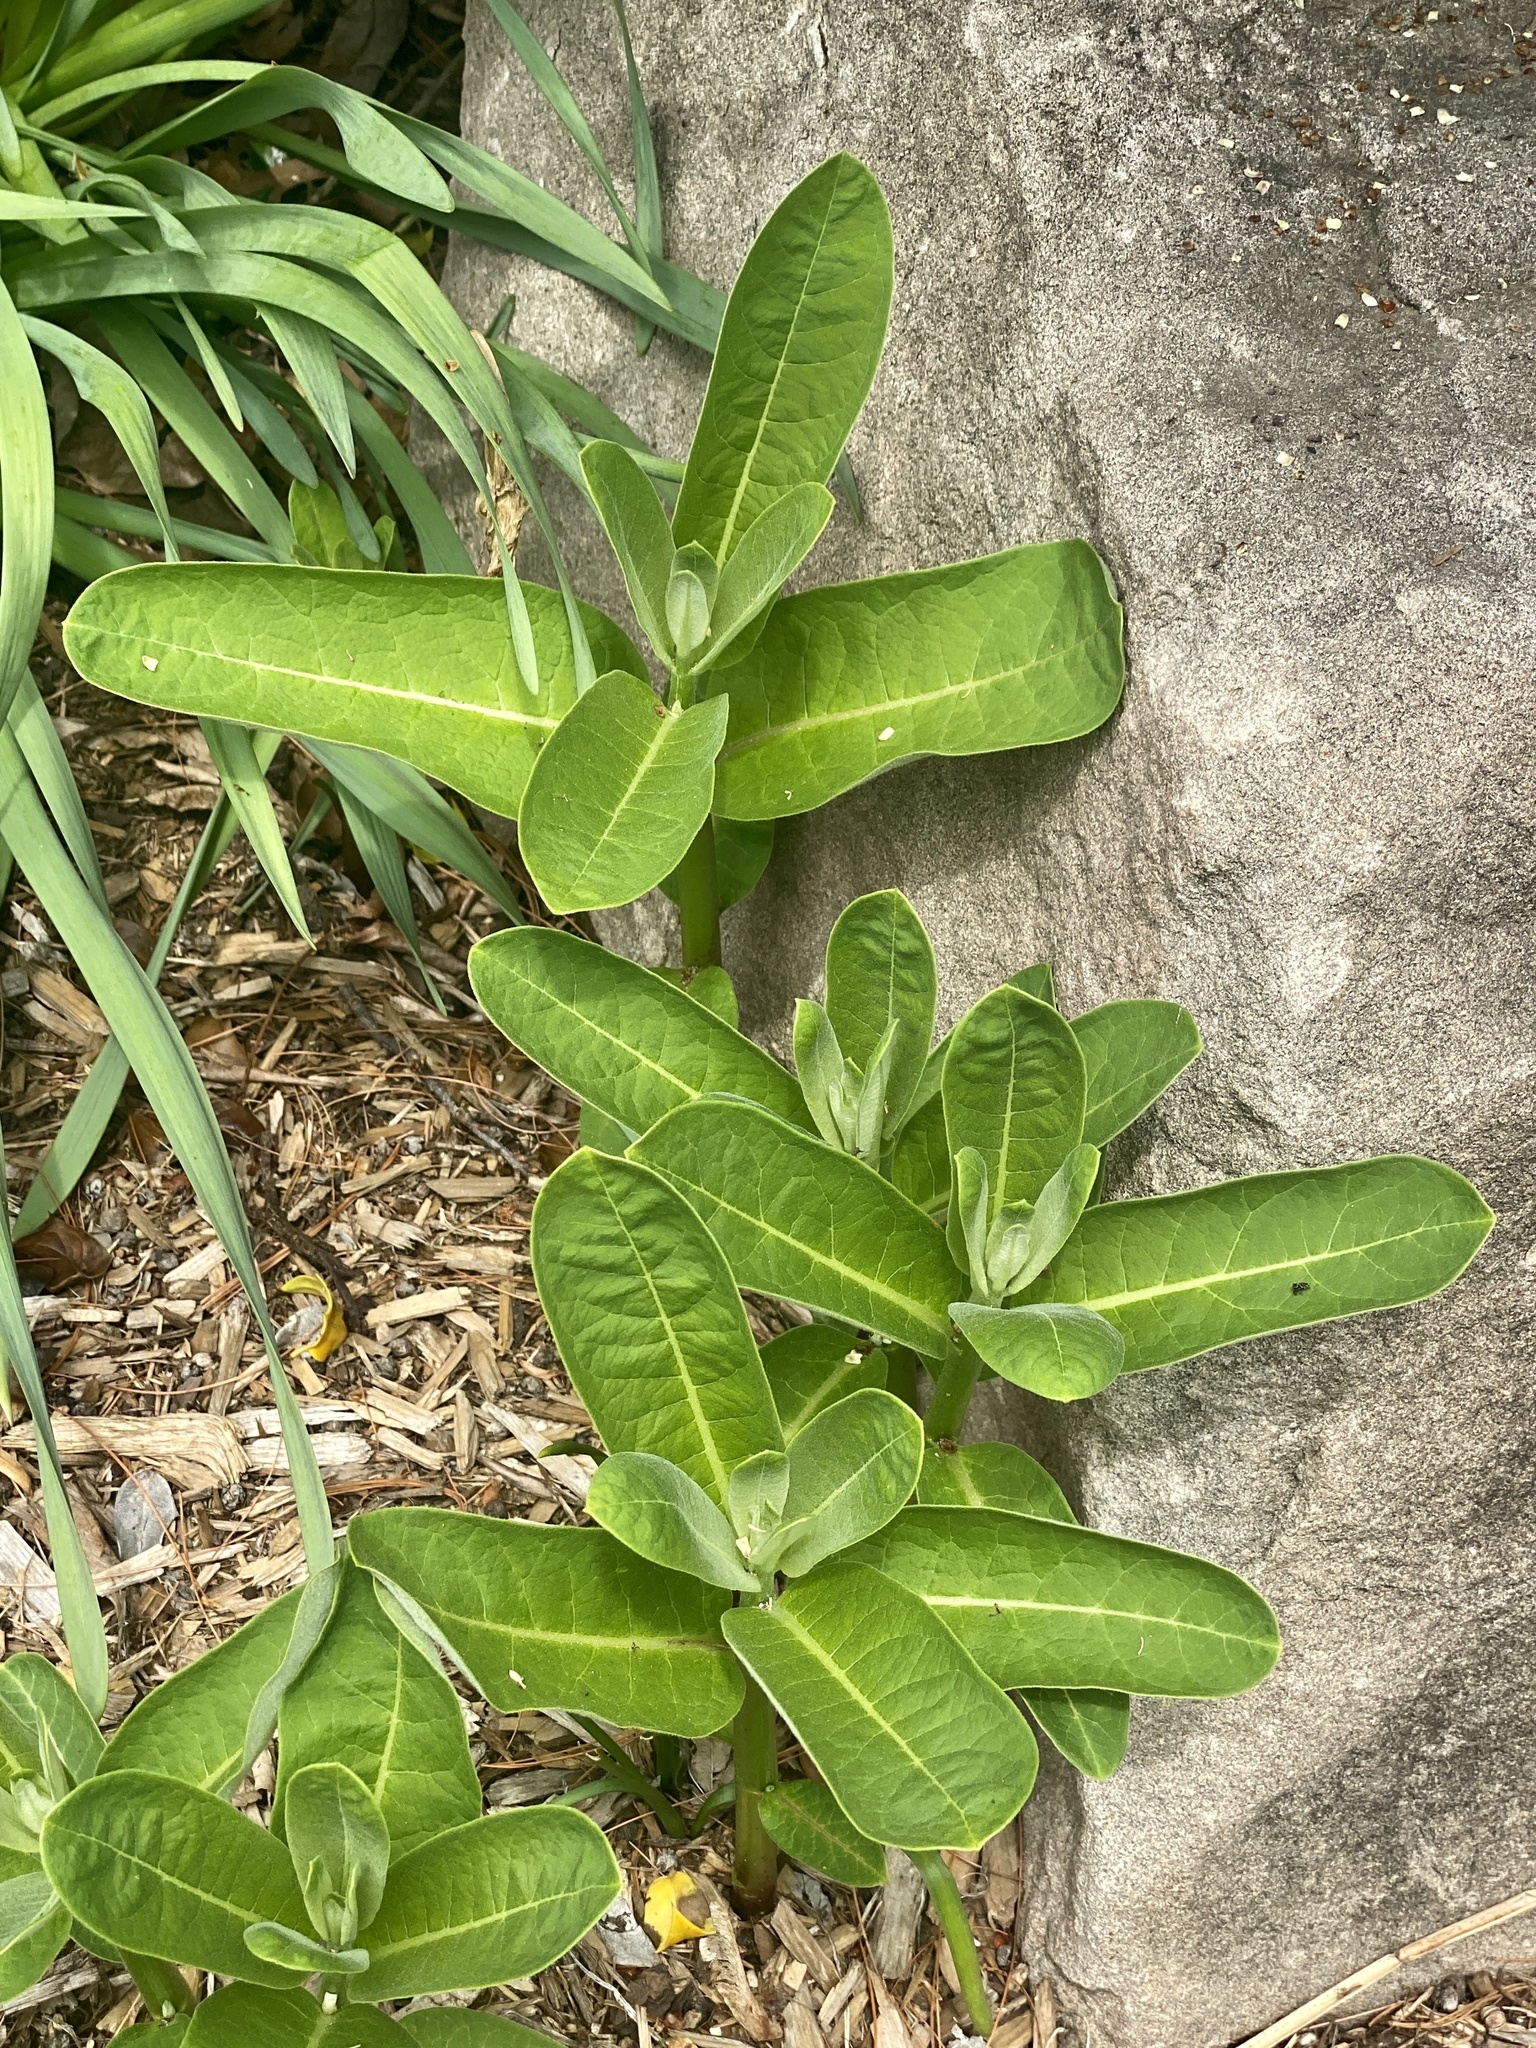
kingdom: Plantae
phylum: Tracheophyta
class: Magnoliopsida
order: Gentianales
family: Apocynaceae
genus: Asclepias
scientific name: Asclepias syriaca
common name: Common milkweed
